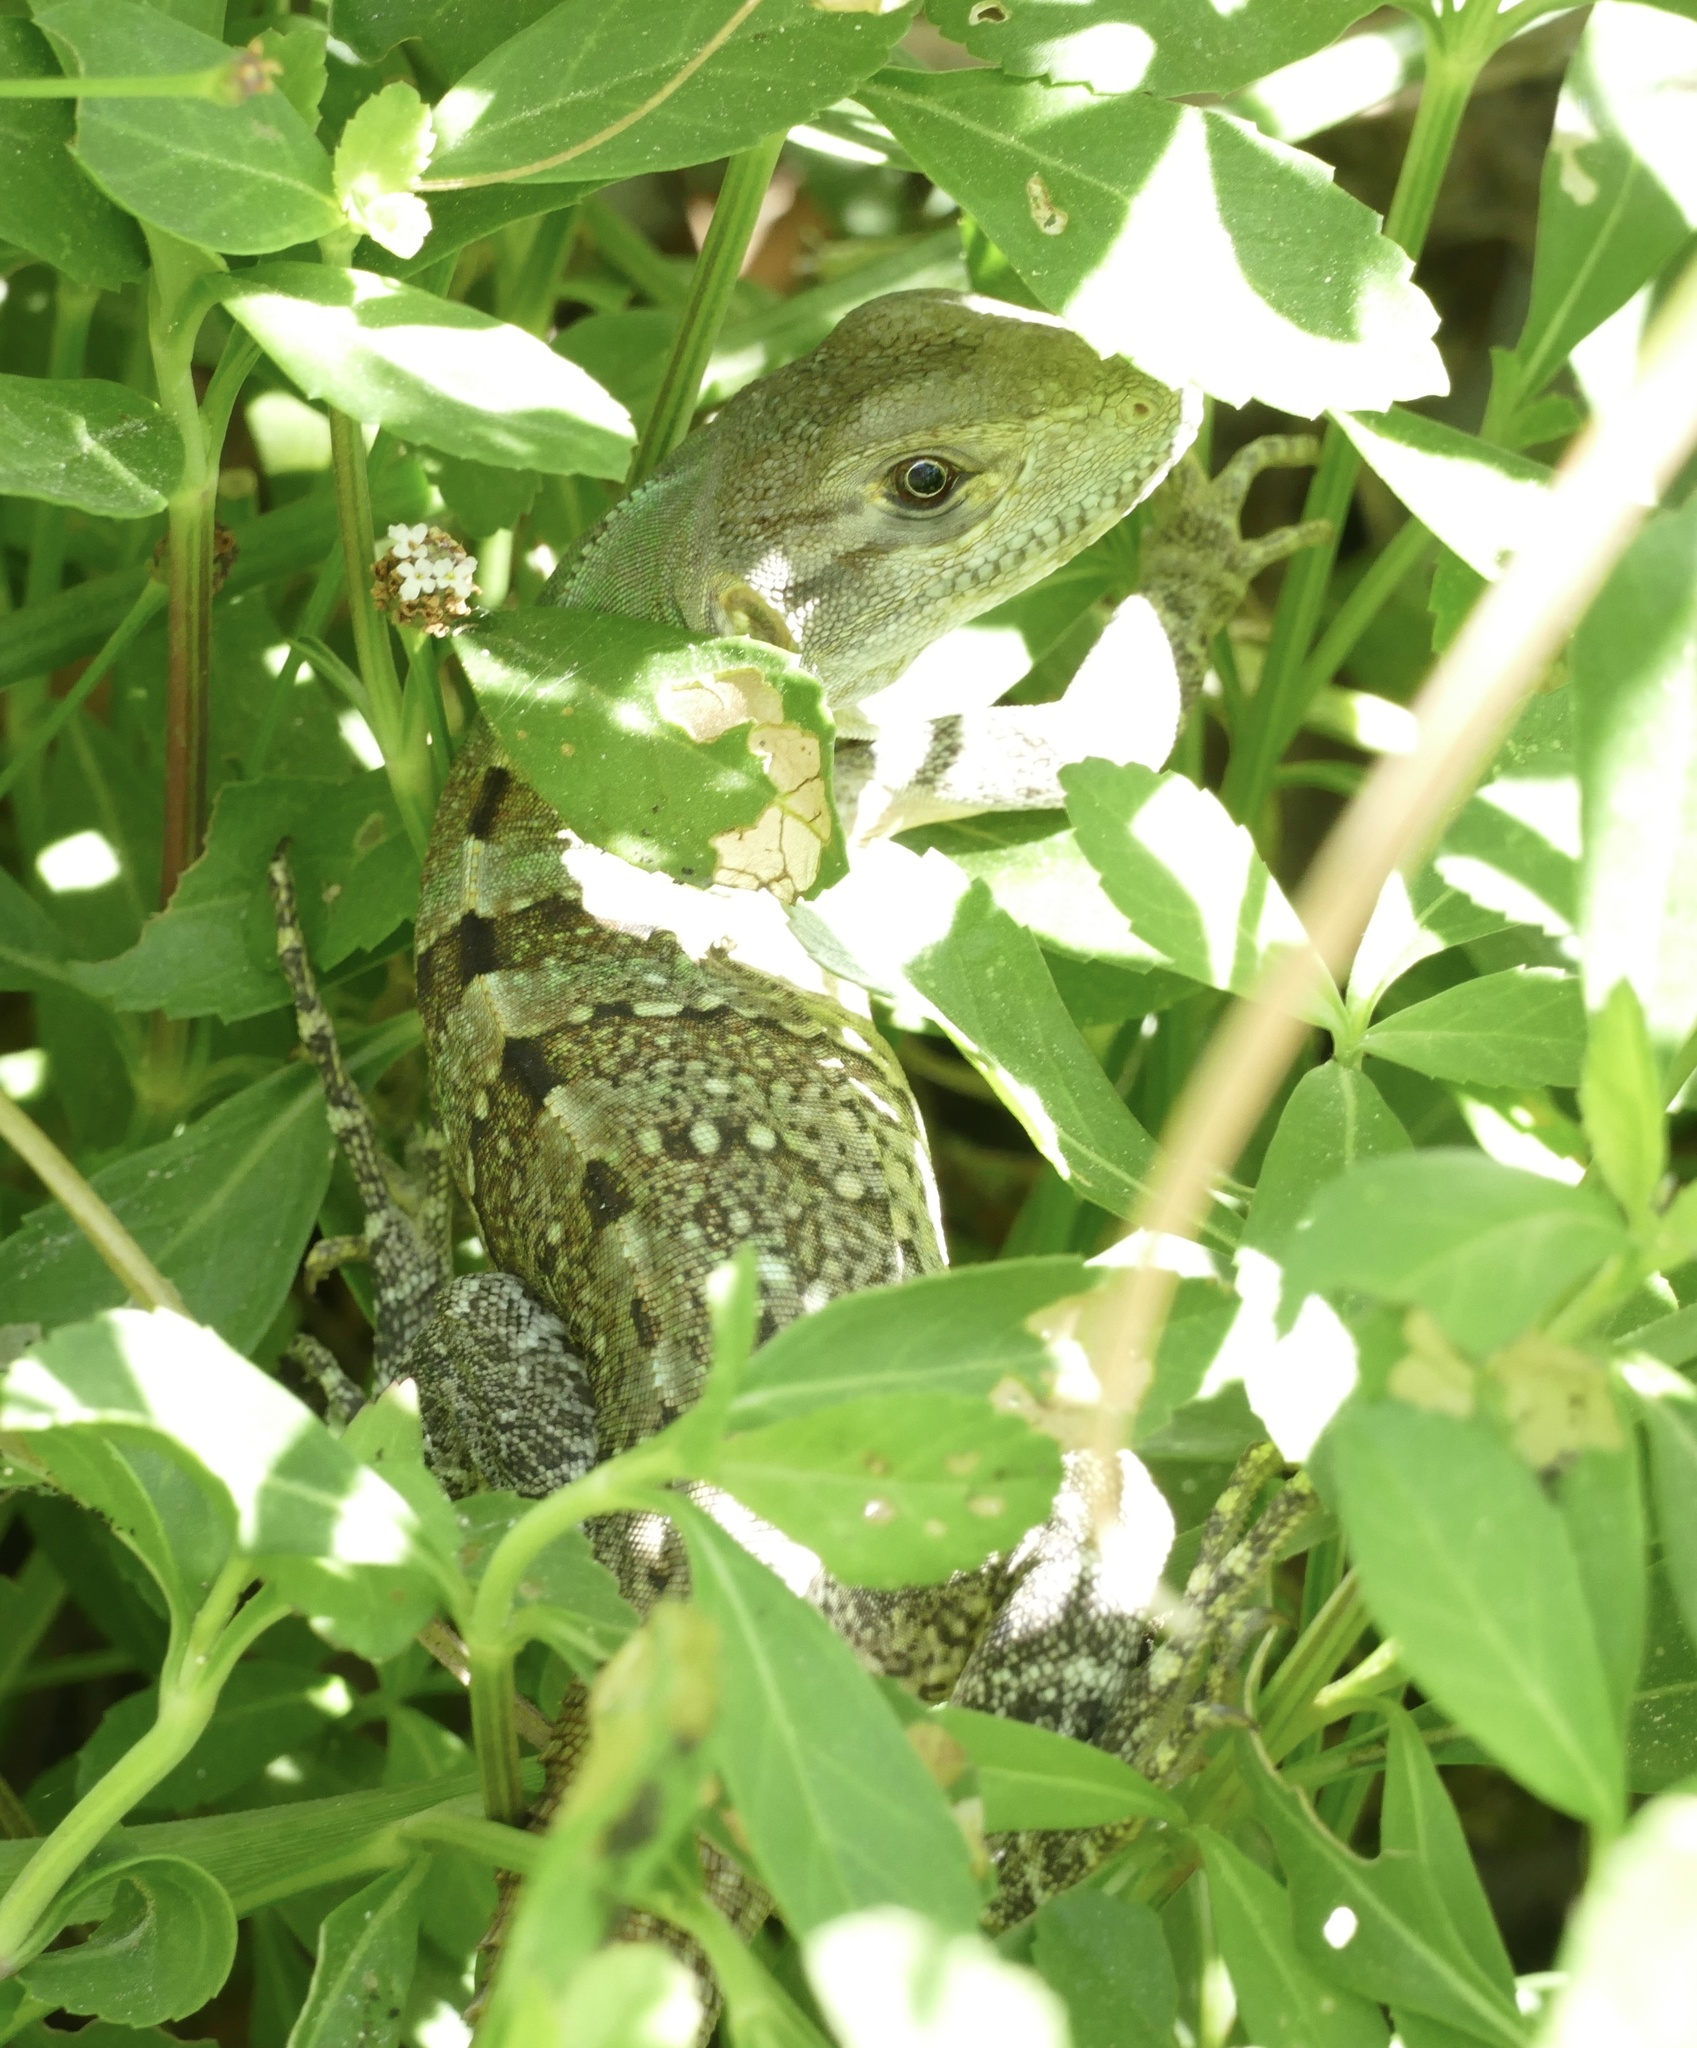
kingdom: Animalia
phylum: Chordata
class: Squamata
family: Iguanidae
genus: Ctenosaura
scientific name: Ctenosaura similis
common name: Black spiny-tailed iguana
